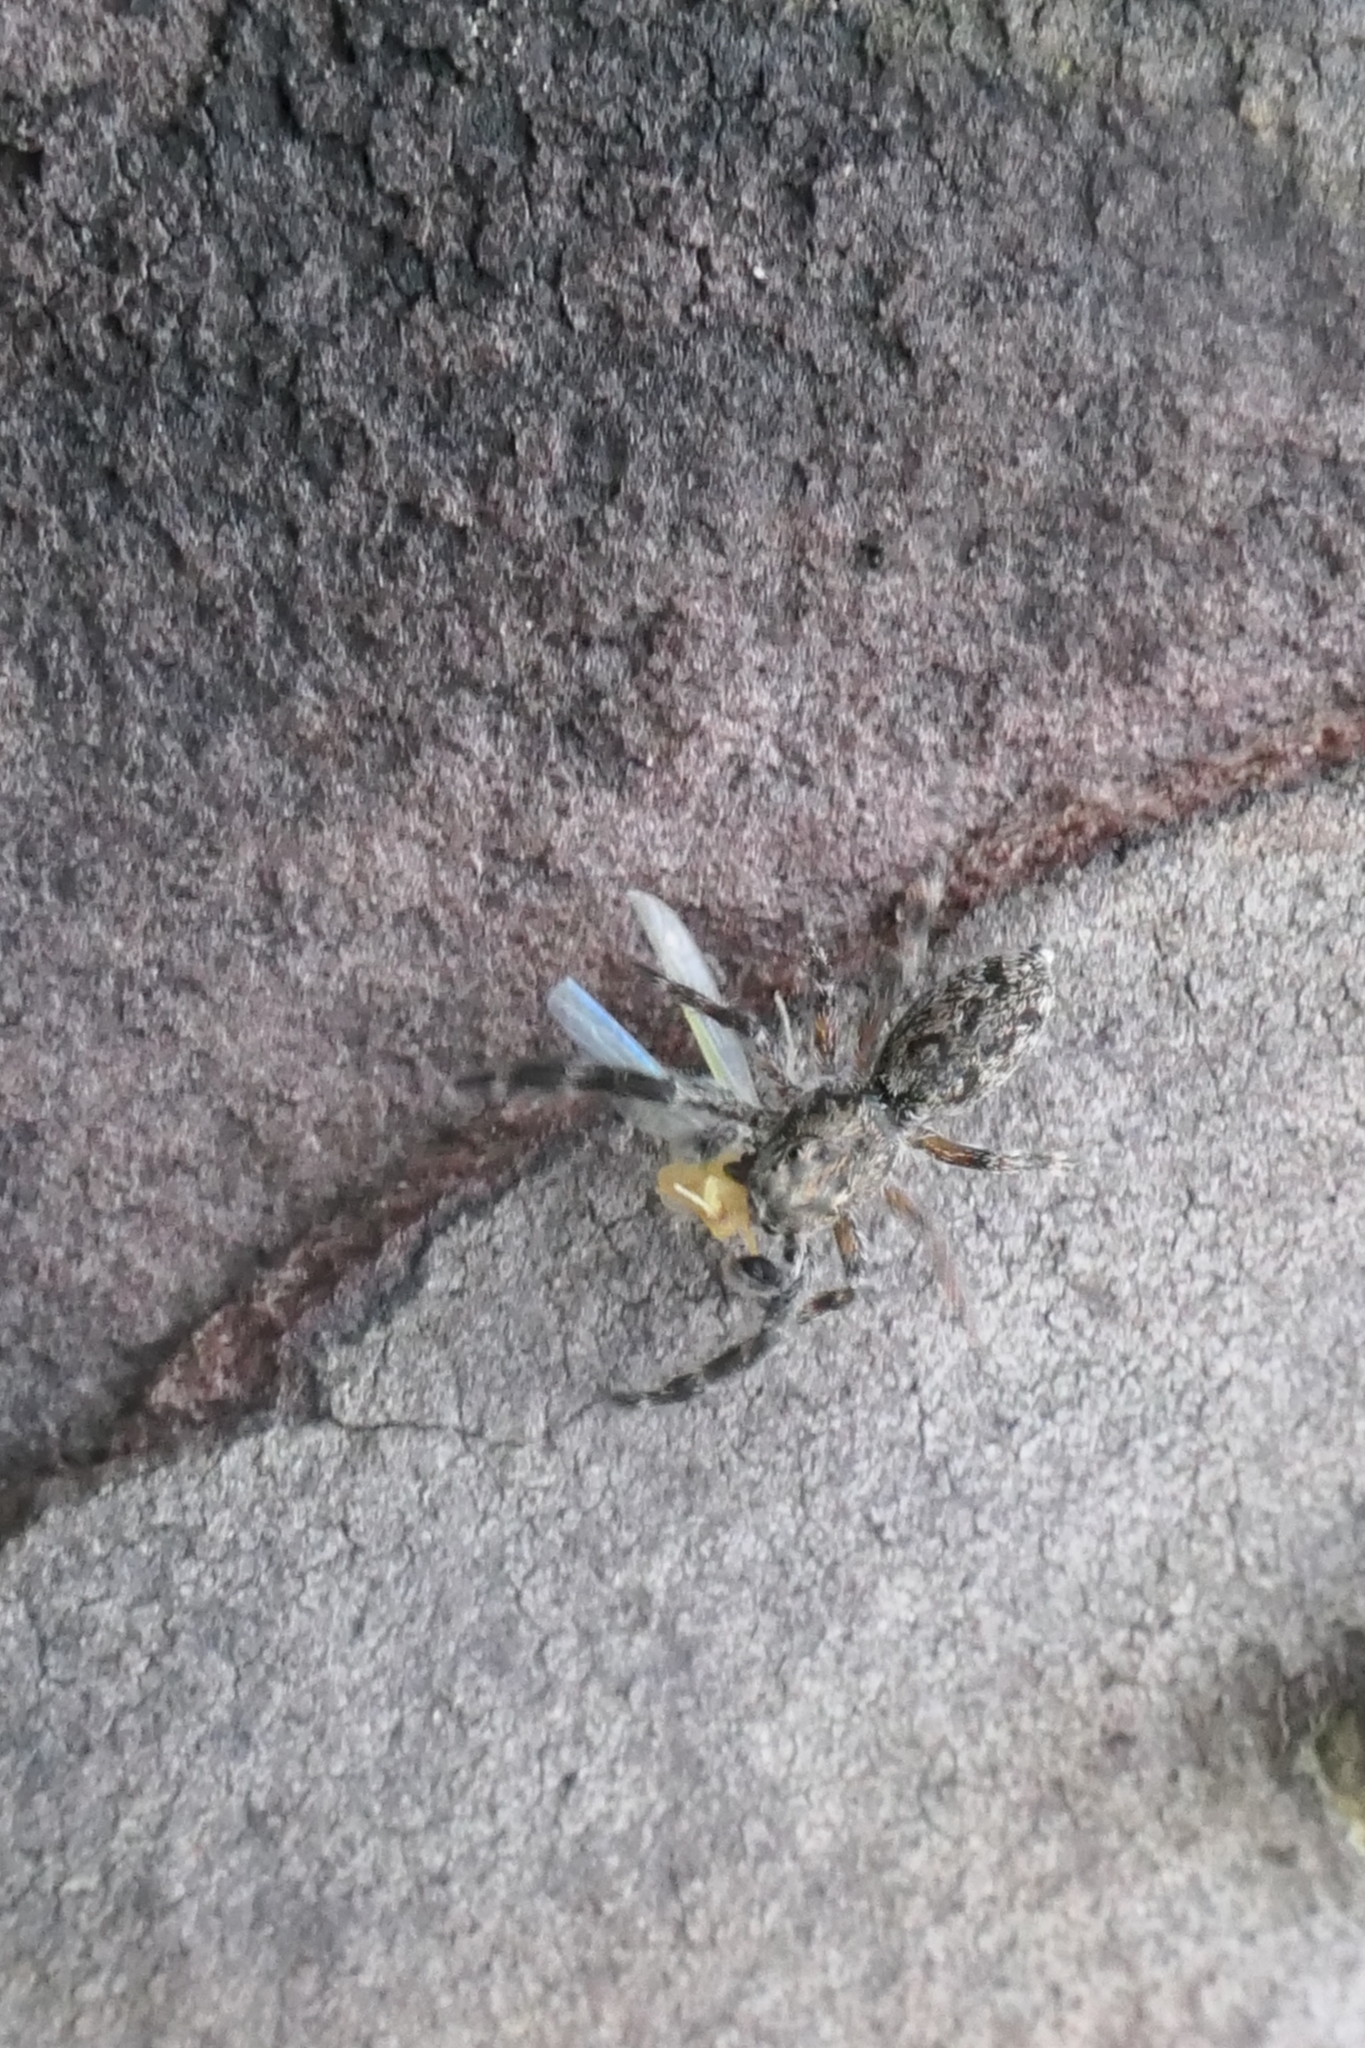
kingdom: Animalia
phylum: Arthropoda
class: Arachnida
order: Araneae
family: Salticidae
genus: Adoxotoma
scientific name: Adoxotoma forsteri
